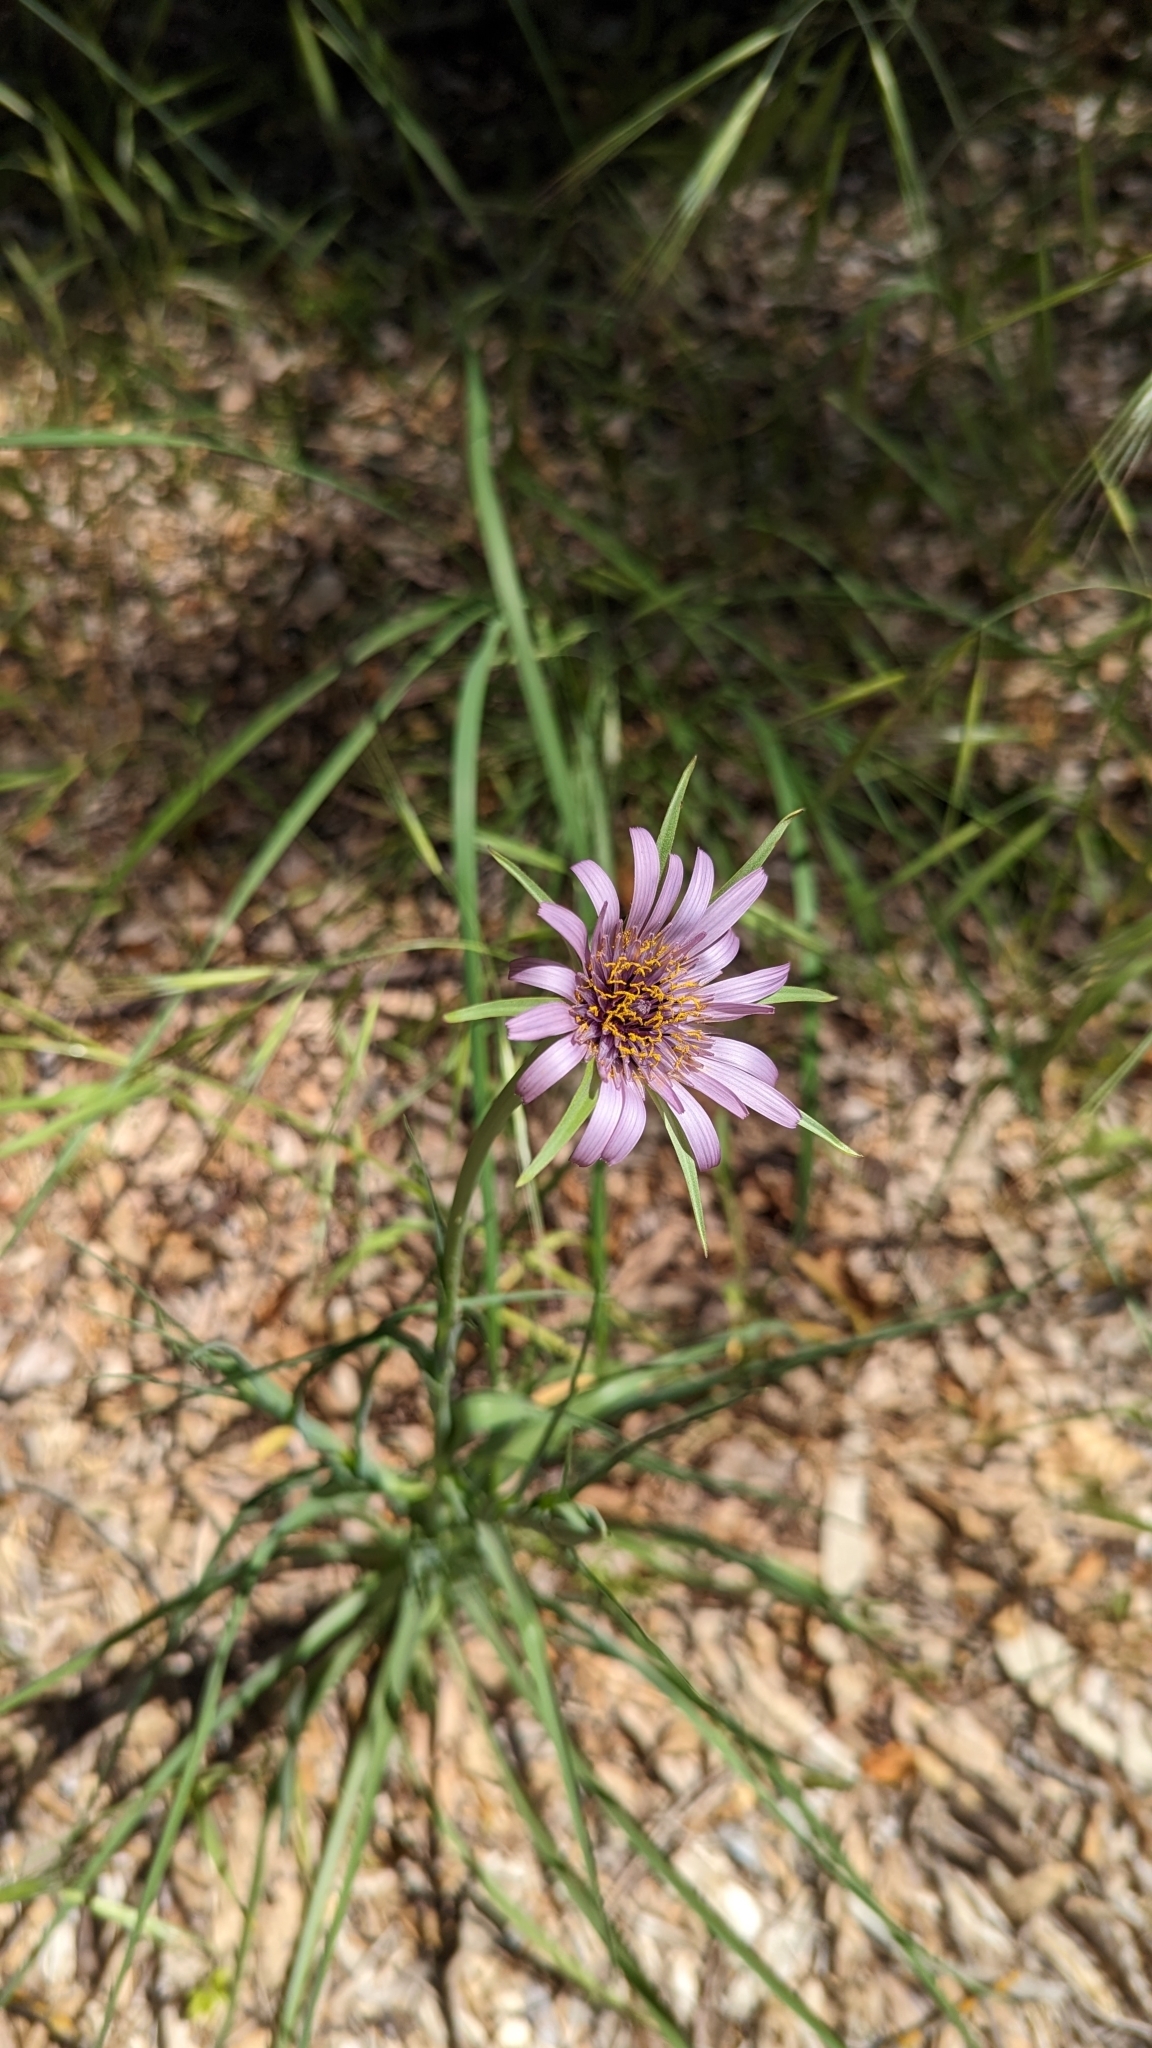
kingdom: Plantae
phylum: Tracheophyta
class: Magnoliopsida
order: Asterales
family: Asteraceae
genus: Tragopogon
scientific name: Tragopogon porrifolius
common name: Salsify
